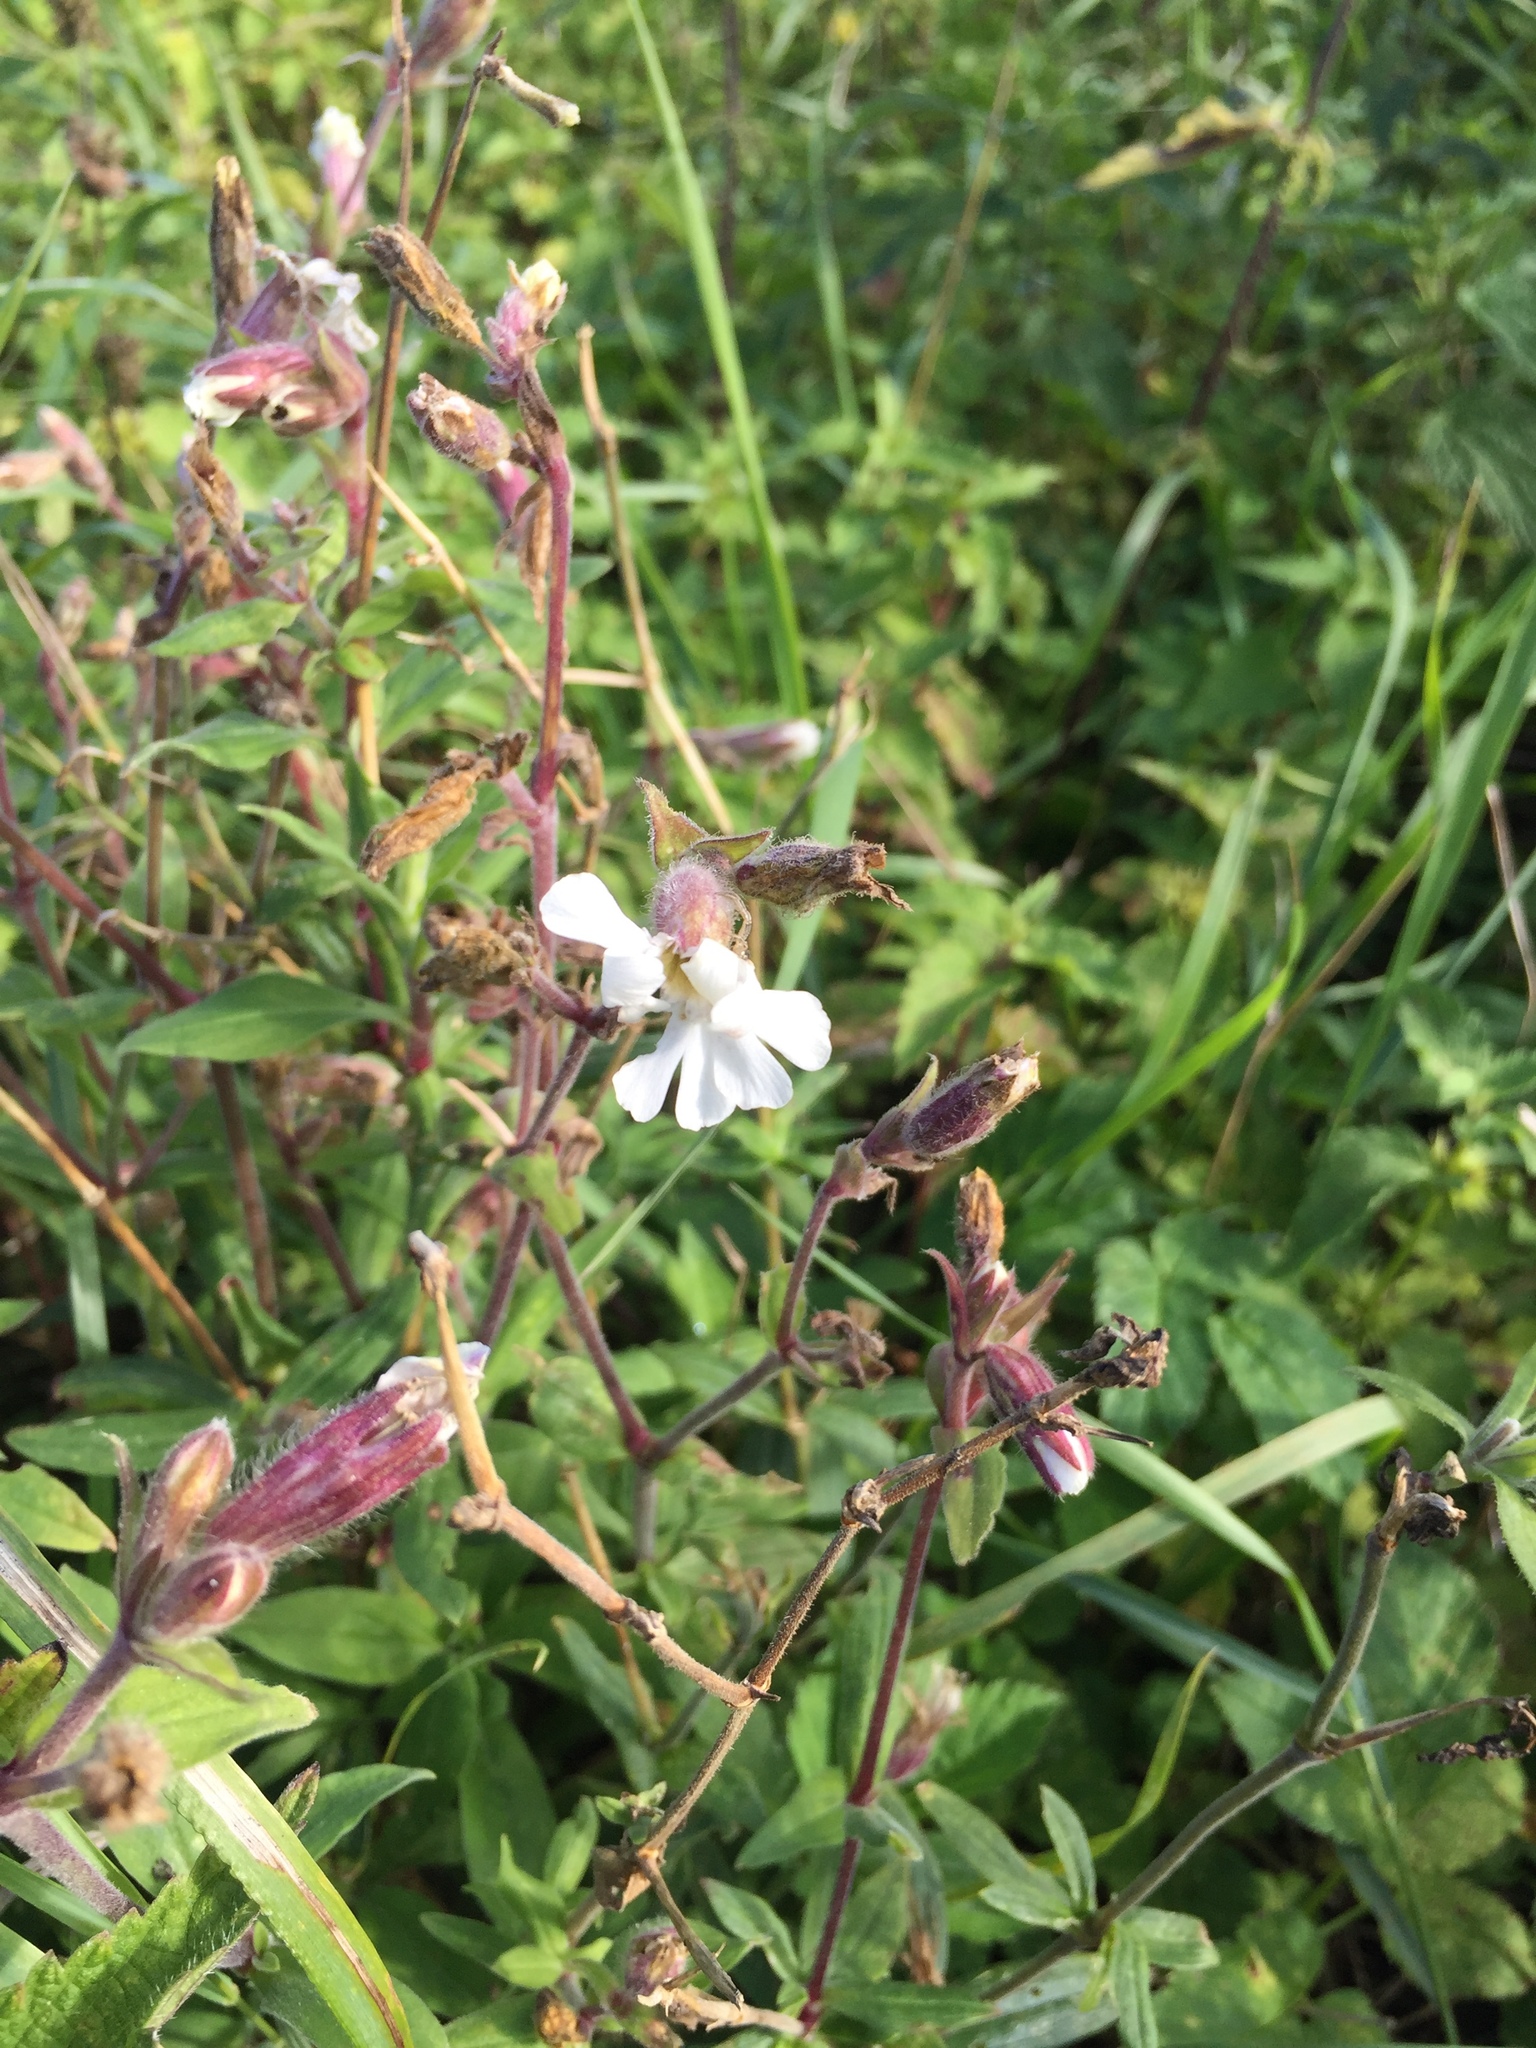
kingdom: Plantae
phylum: Tracheophyta
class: Magnoliopsida
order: Caryophyllales
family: Caryophyllaceae
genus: Silene
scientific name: Silene latifolia
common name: White campion
